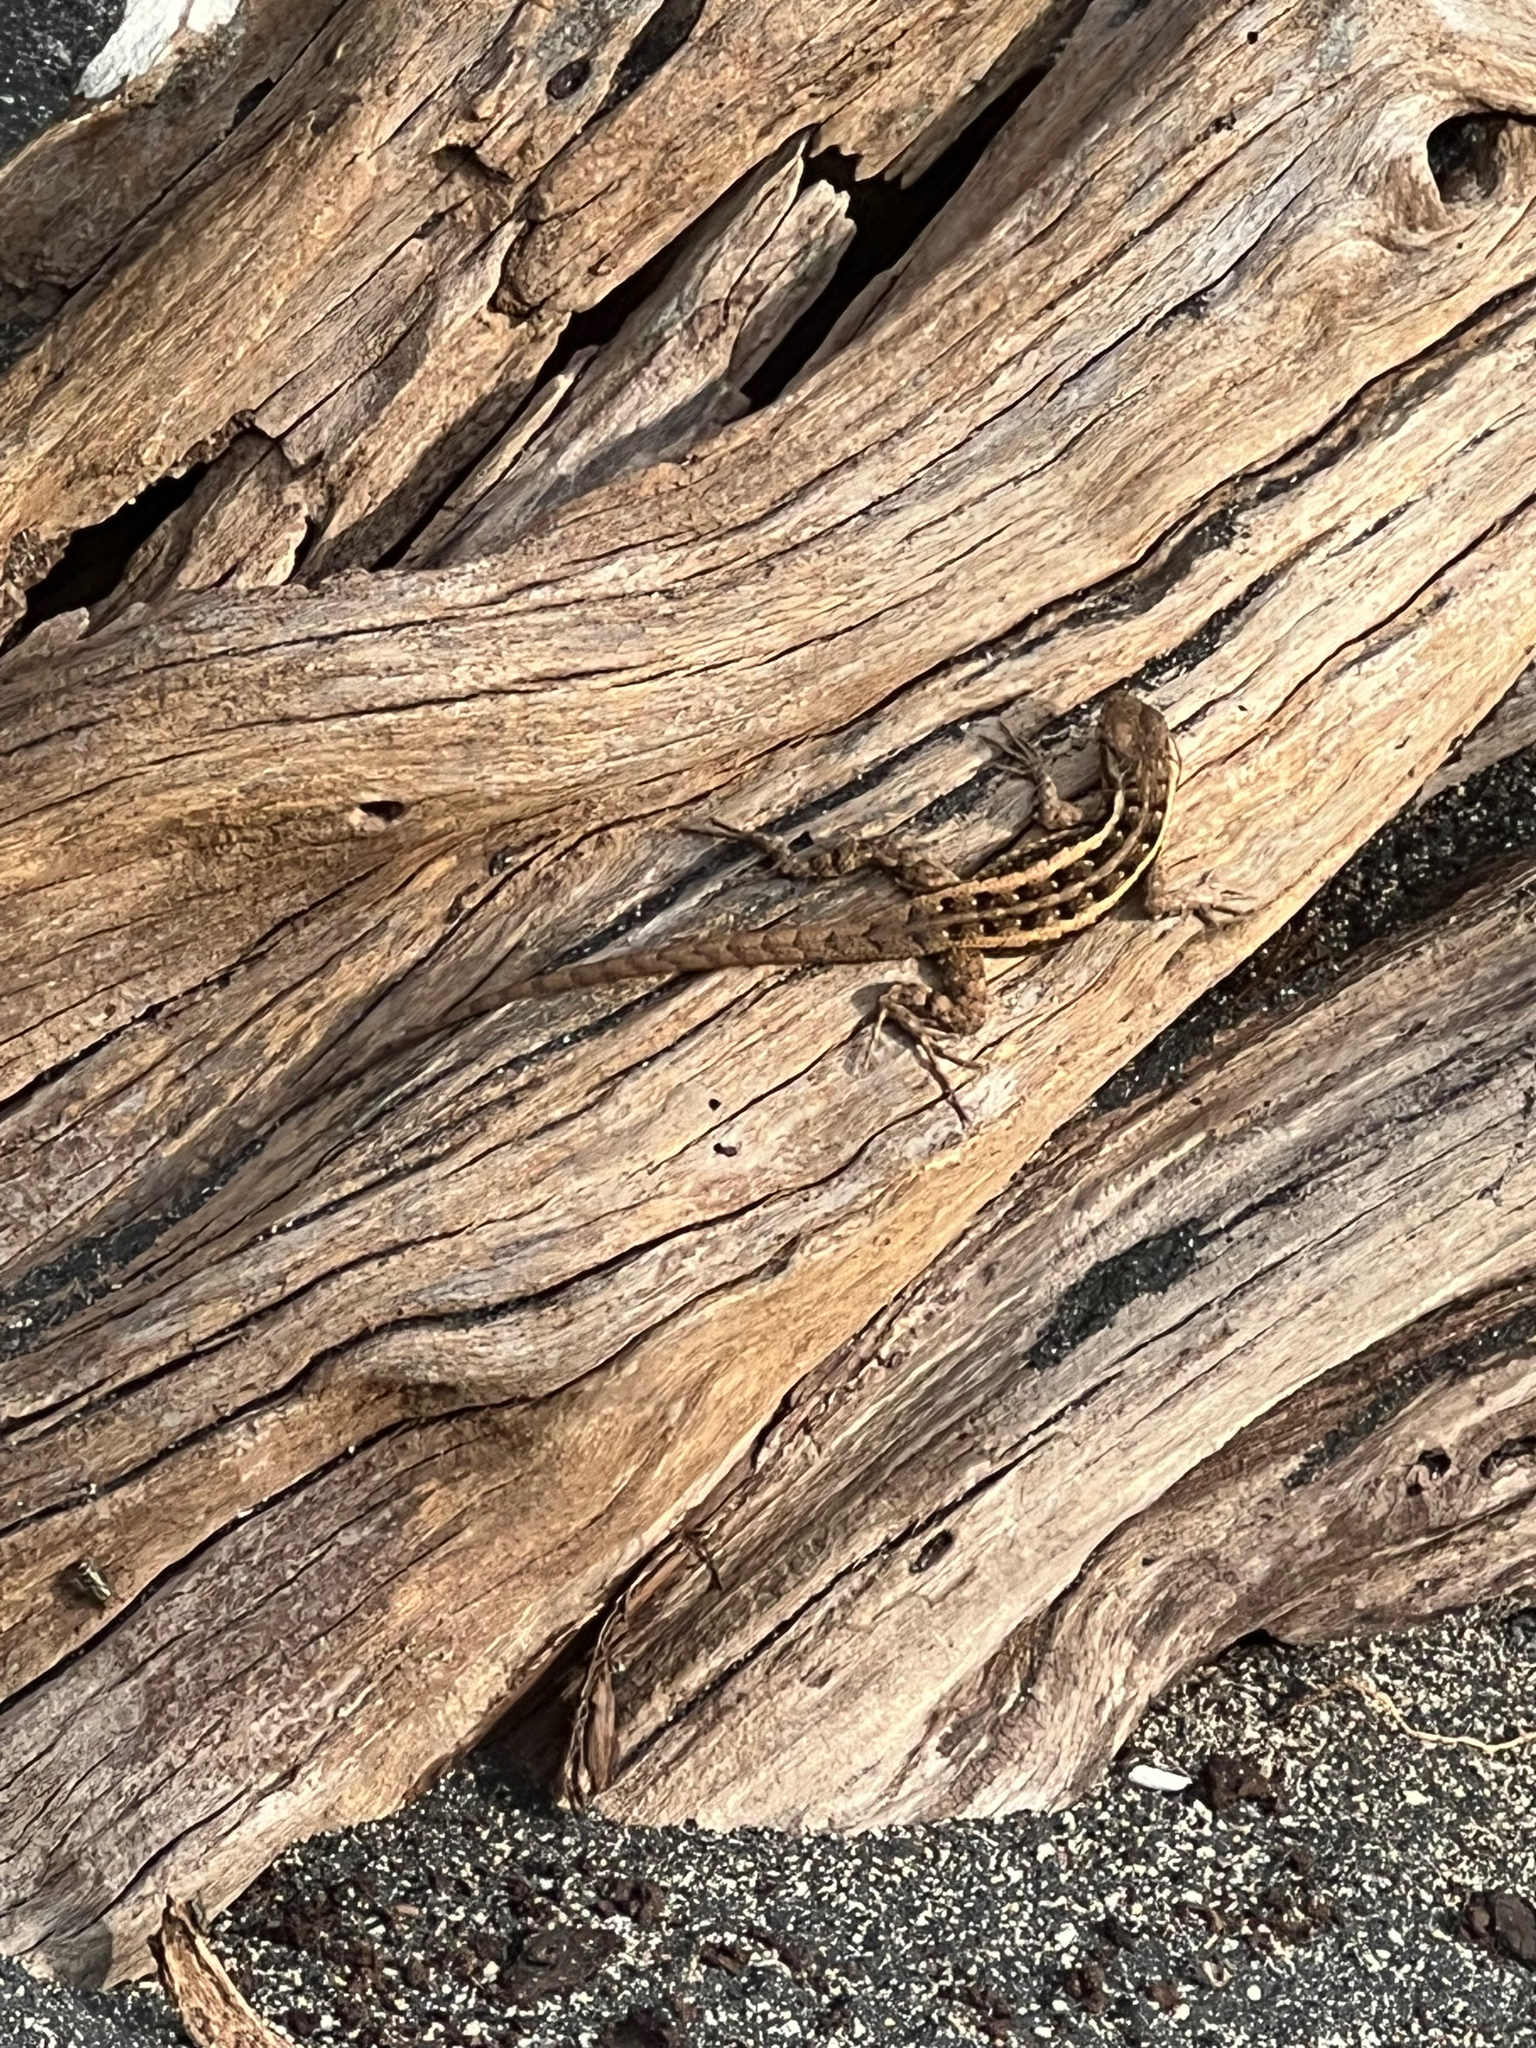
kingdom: Animalia
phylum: Chordata
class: Squamata
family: Phrynosomatidae
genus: Sceloporus
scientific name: Sceloporus variabilis
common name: Rosebelly lizard
